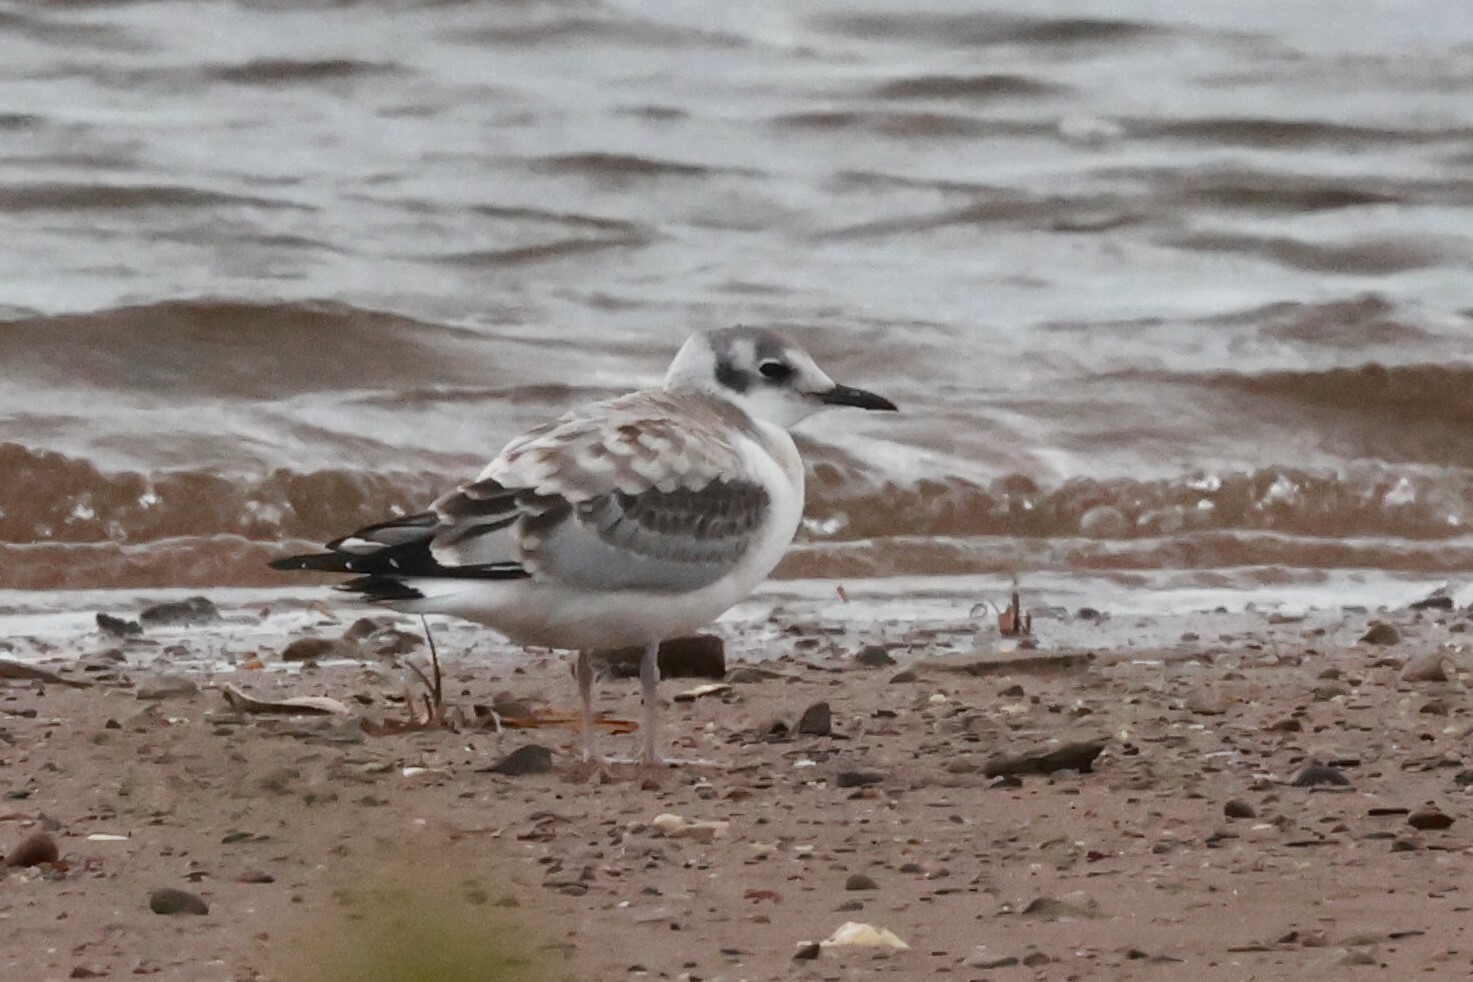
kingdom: Animalia
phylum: Chordata
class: Aves
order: Charadriiformes
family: Laridae
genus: Chroicocephalus
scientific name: Chroicocephalus philadelphia
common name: Bonaparte's gull
